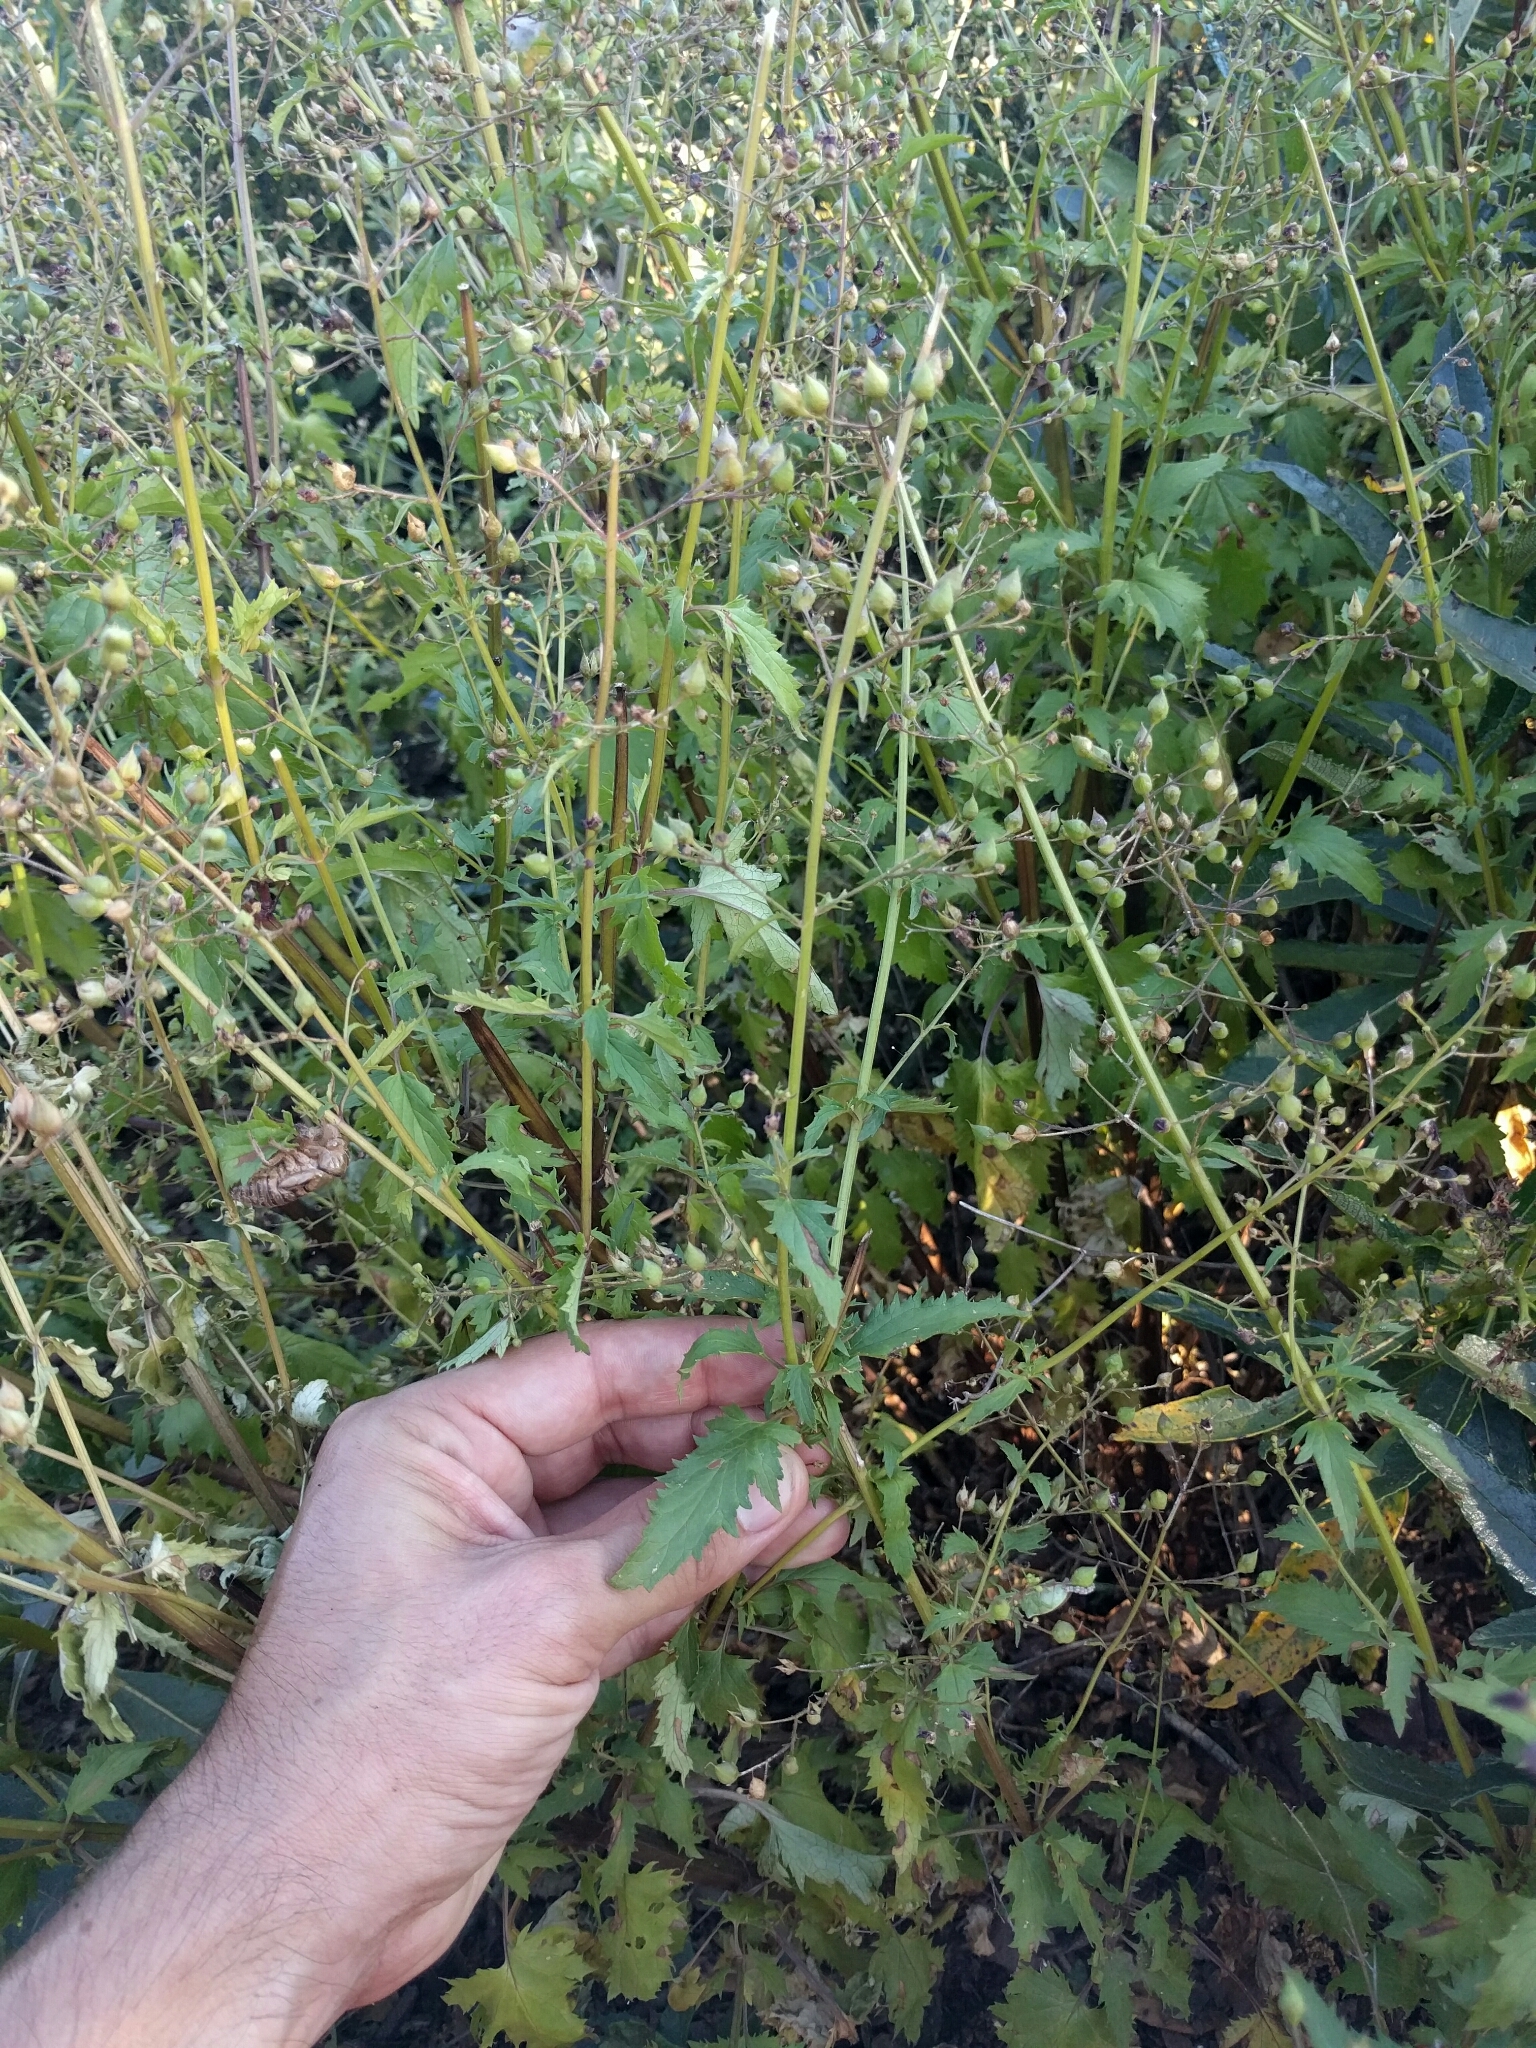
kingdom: Plantae
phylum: Tracheophyta
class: Magnoliopsida
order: Lamiales
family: Scrophulariaceae
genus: Scrophularia
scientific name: Scrophularia californica
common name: California figwort
